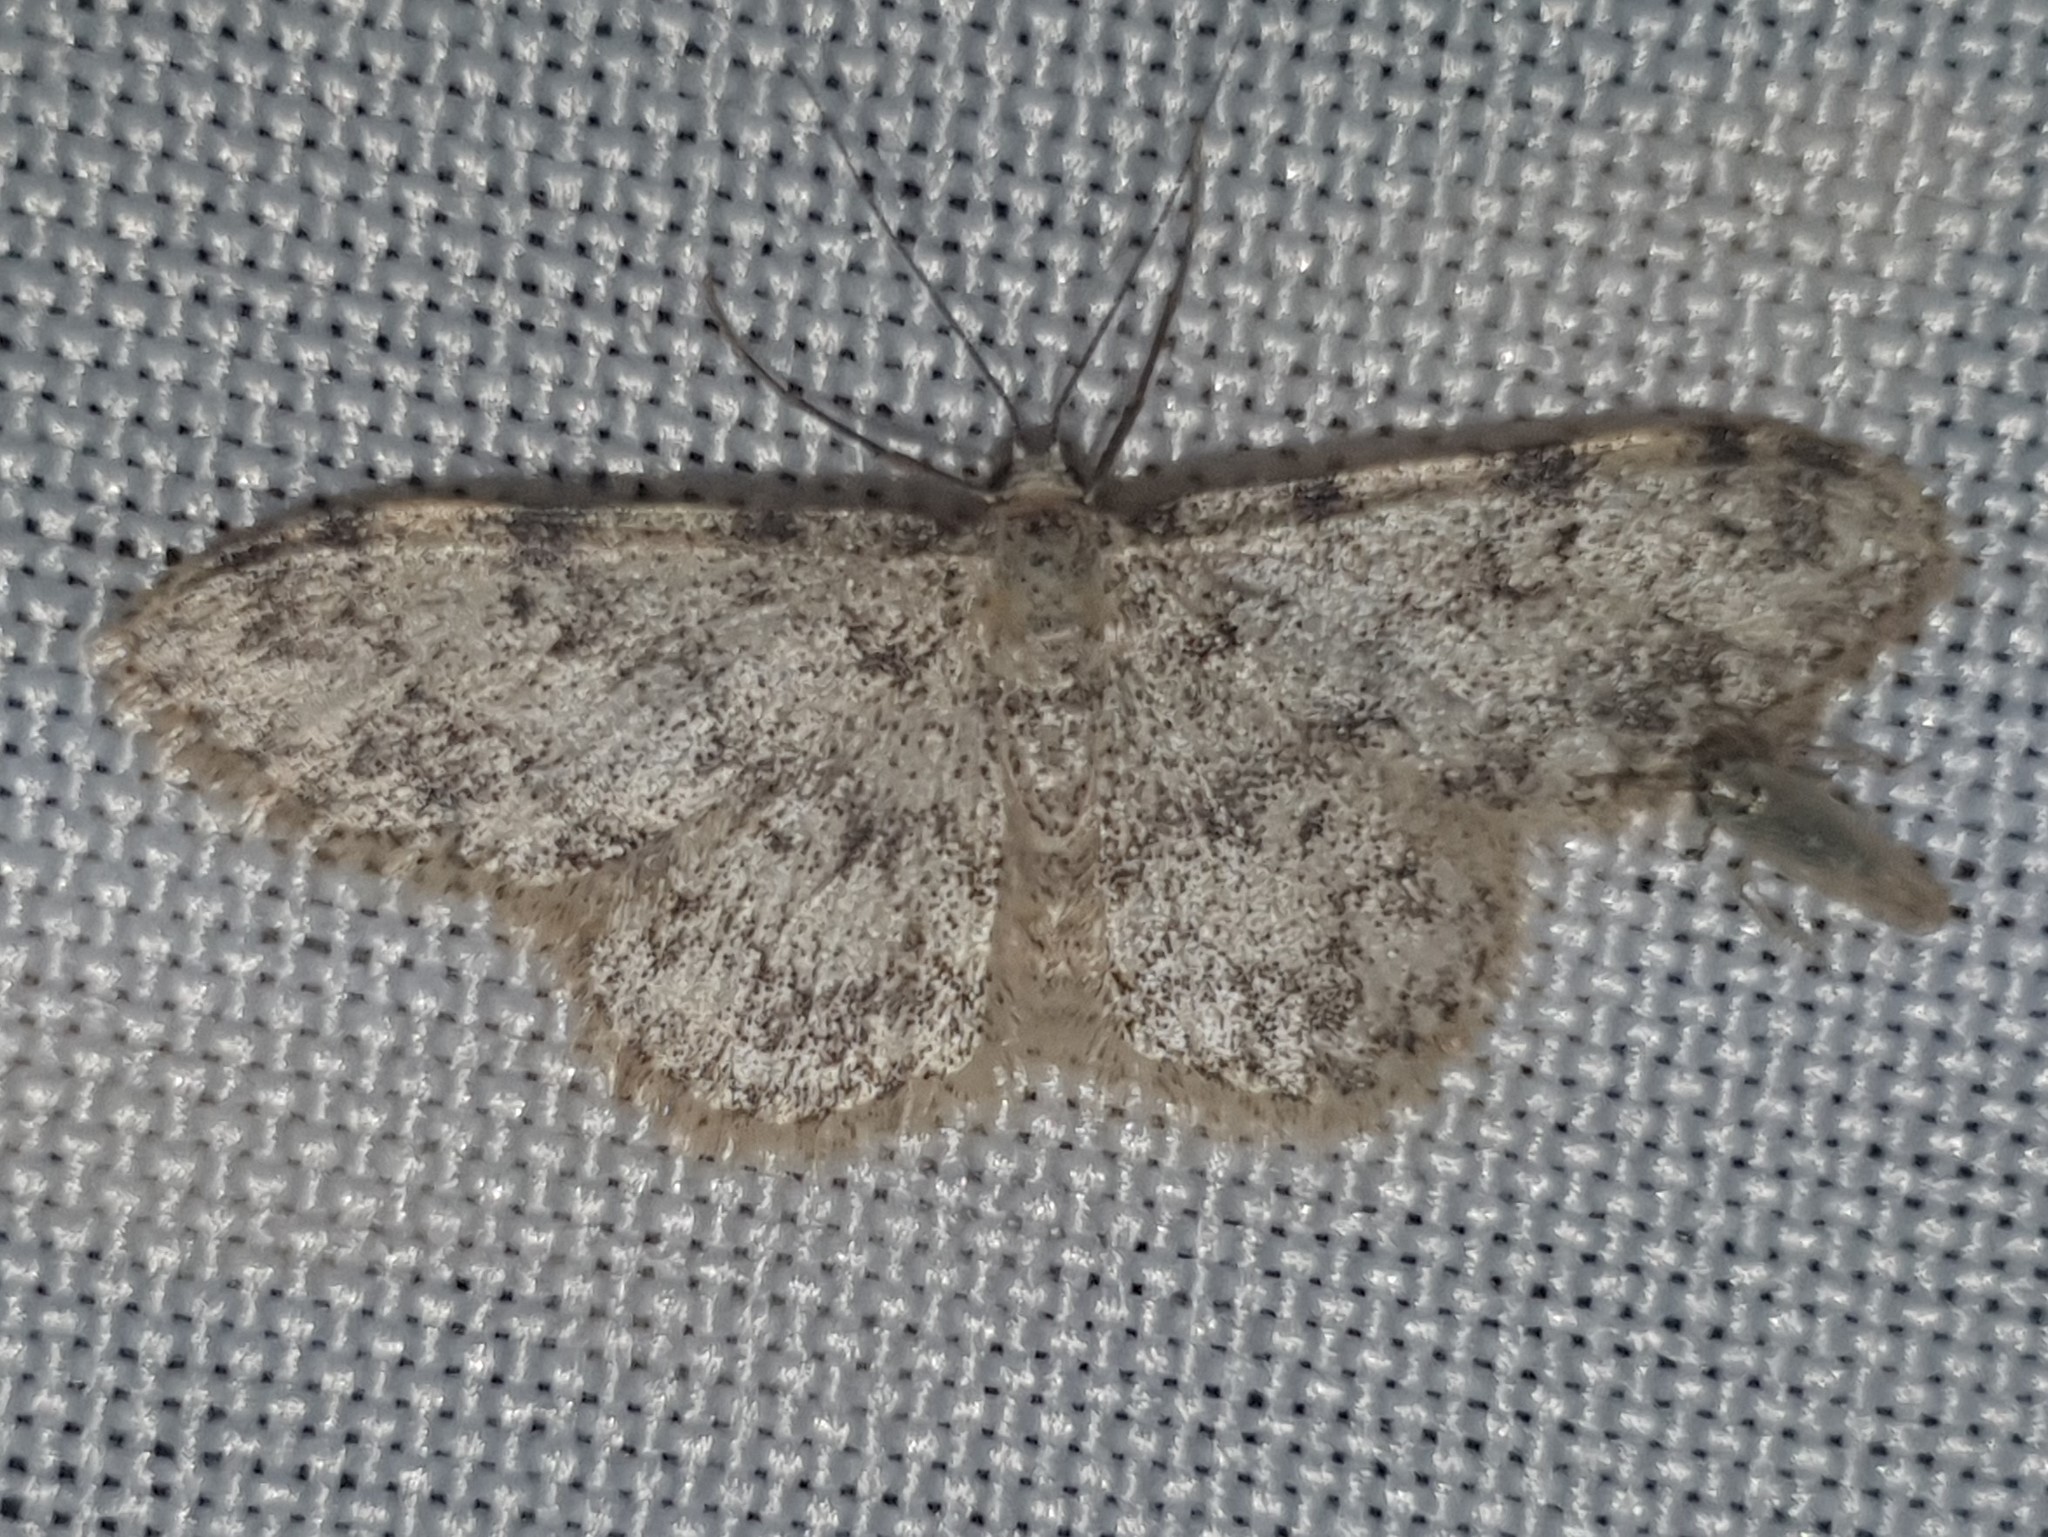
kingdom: Animalia
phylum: Arthropoda
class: Insecta
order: Lepidoptera
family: Geometridae
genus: Idaea
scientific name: Idaea contiguaria
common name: Weaver's wave
